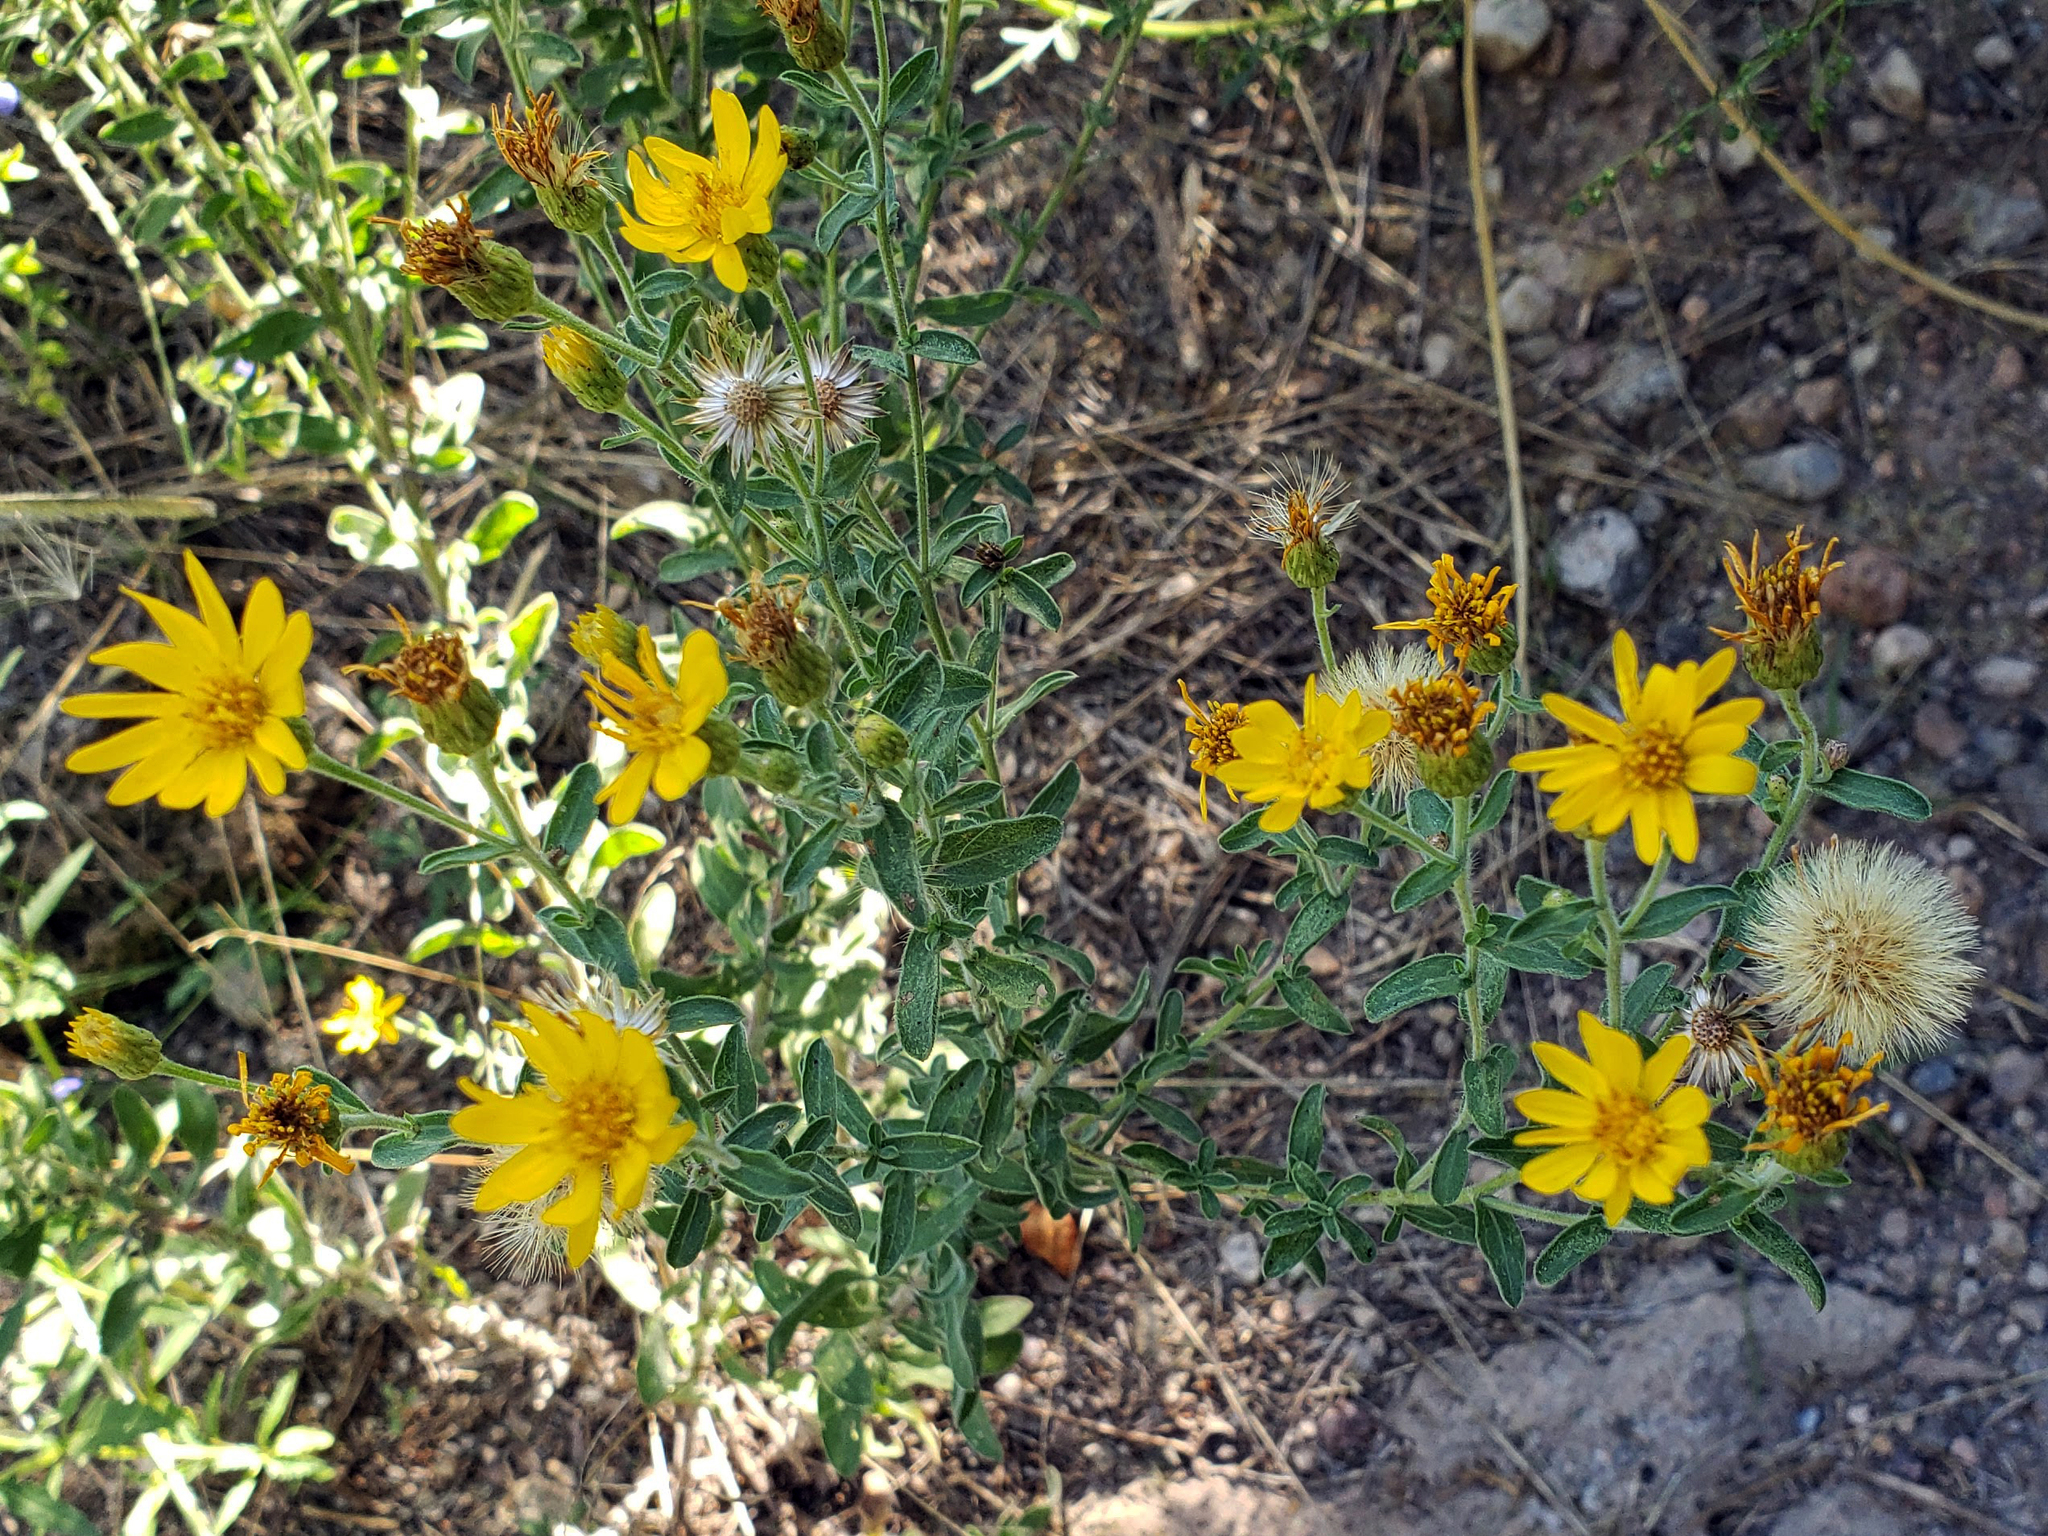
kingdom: Plantae
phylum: Tracheophyta
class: Magnoliopsida
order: Asterales
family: Asteraceae
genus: Heterotheca
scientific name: Heterotheca hirsutissima
